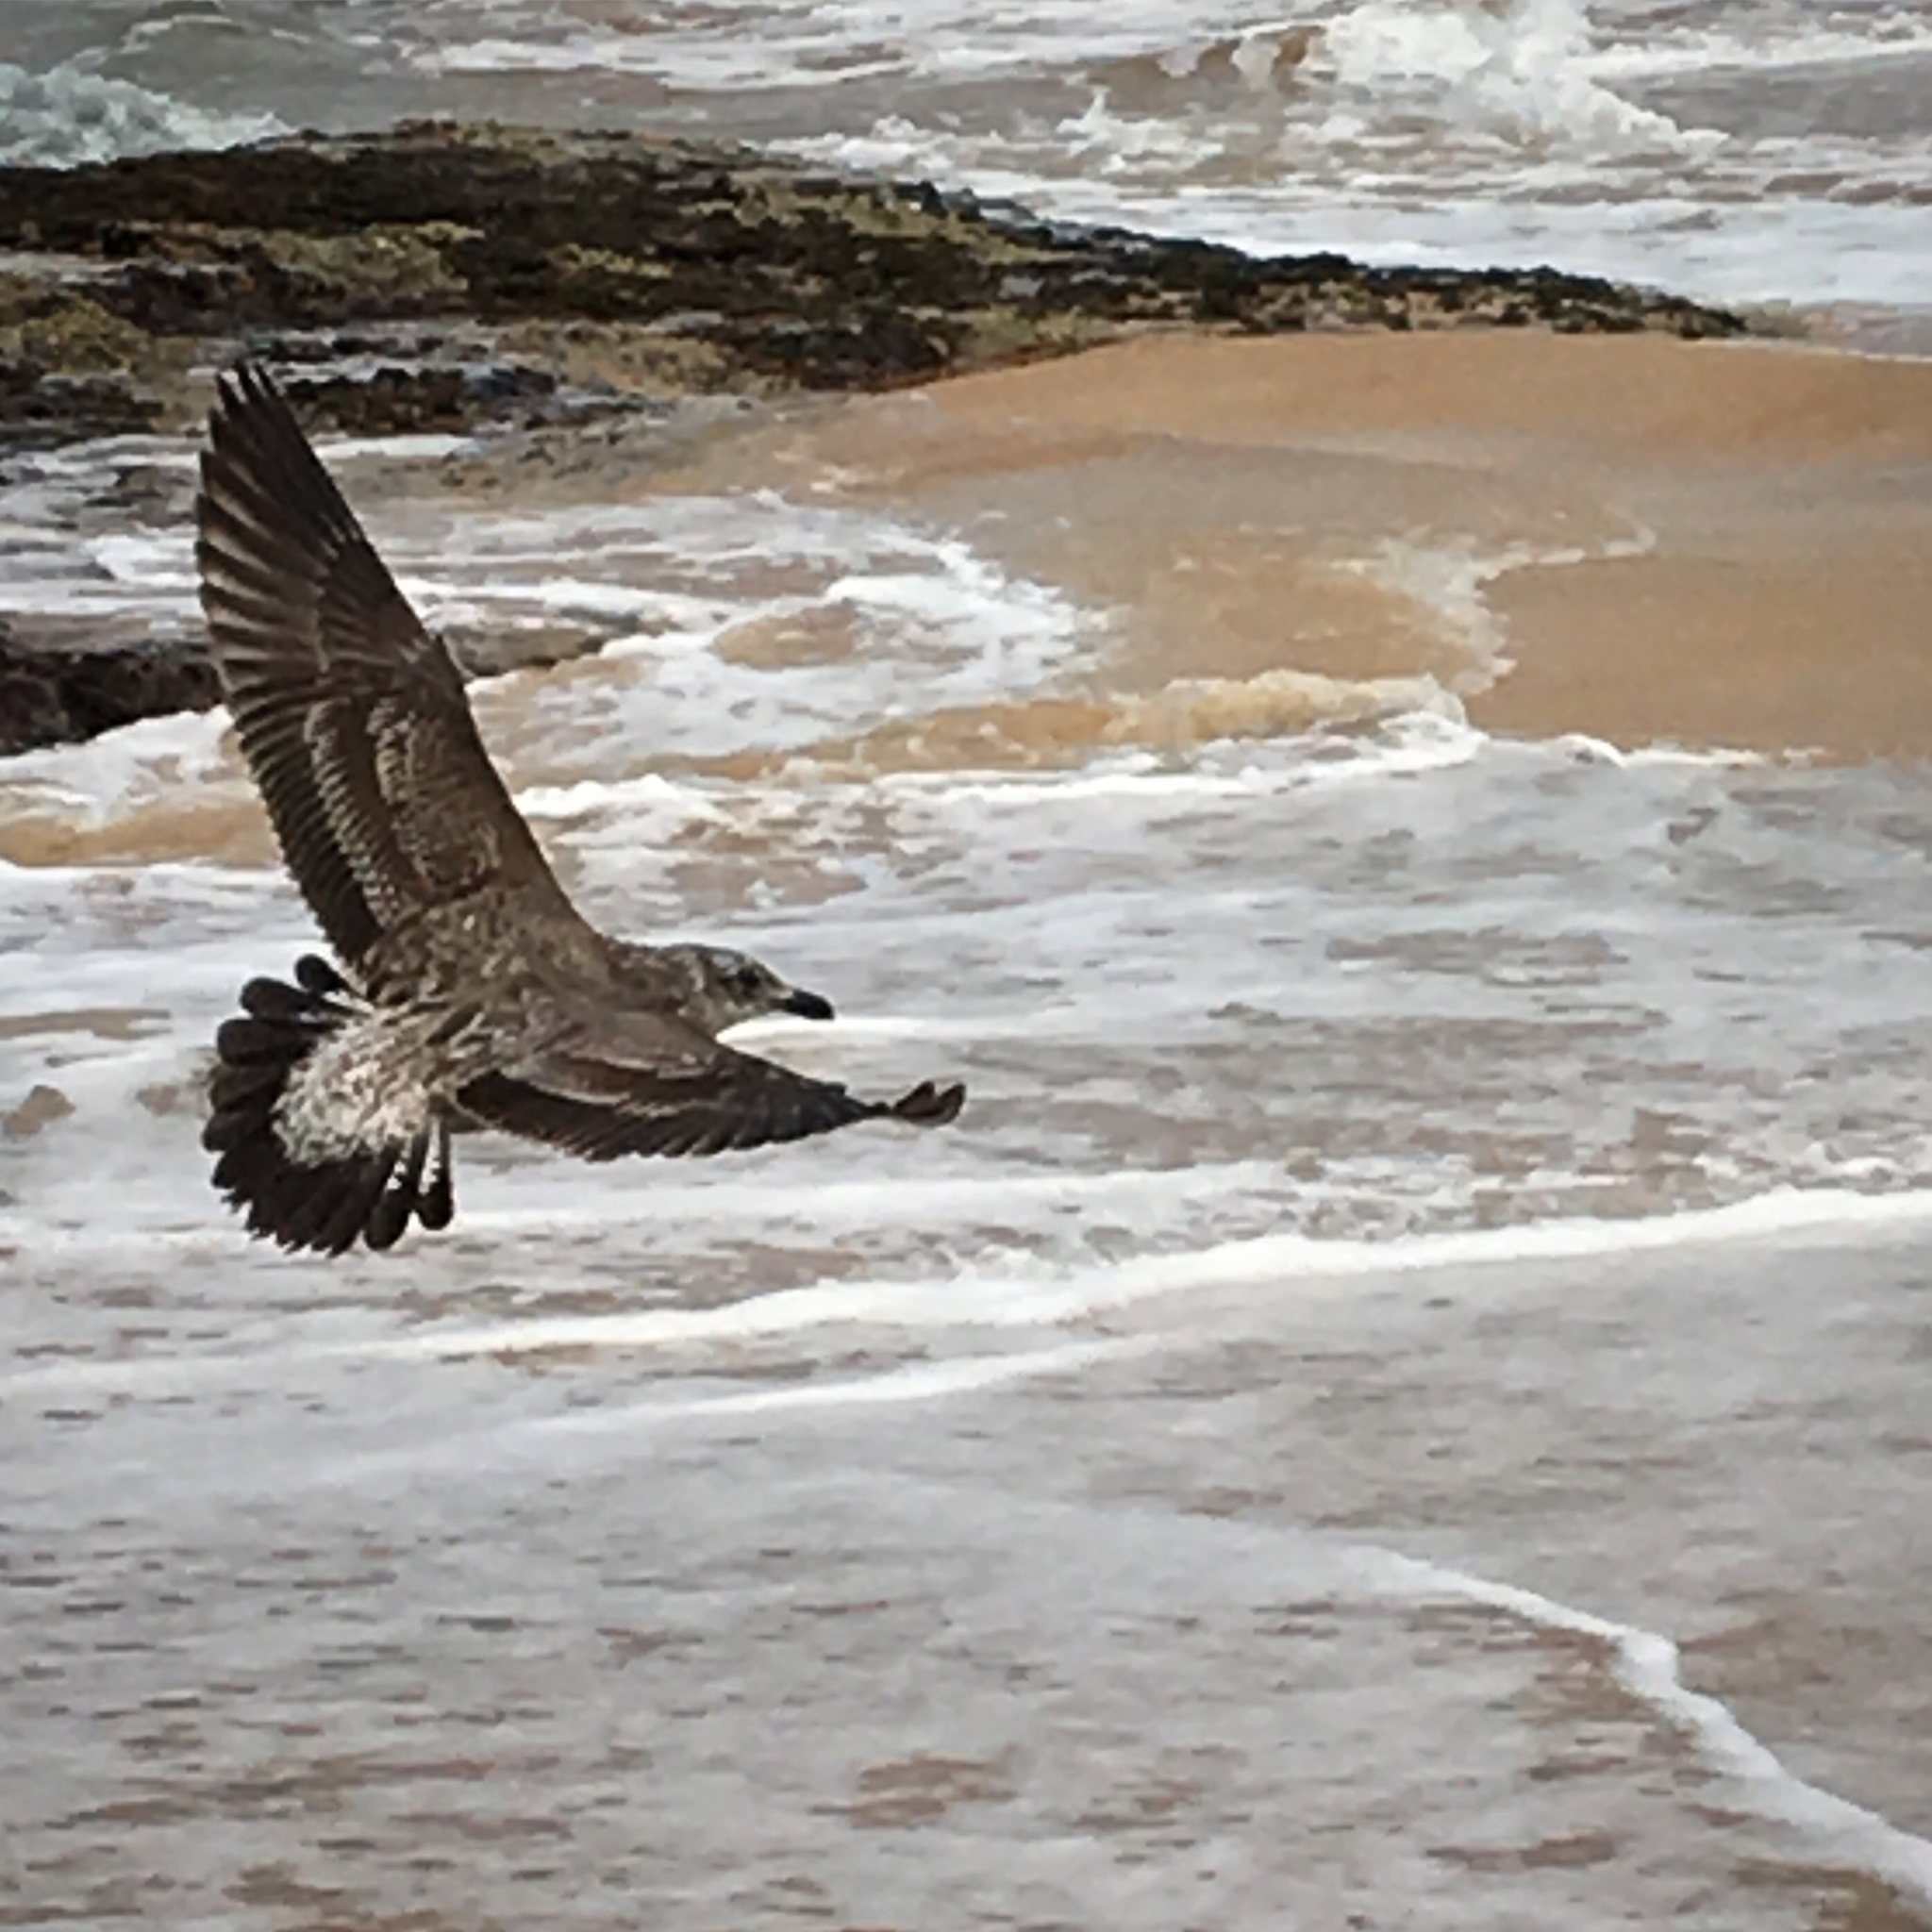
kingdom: Animalia
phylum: Chordata
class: Aves
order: Charadriiformes
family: Laridae
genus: Larus
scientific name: Larus dominicanus
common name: Kelp gull
